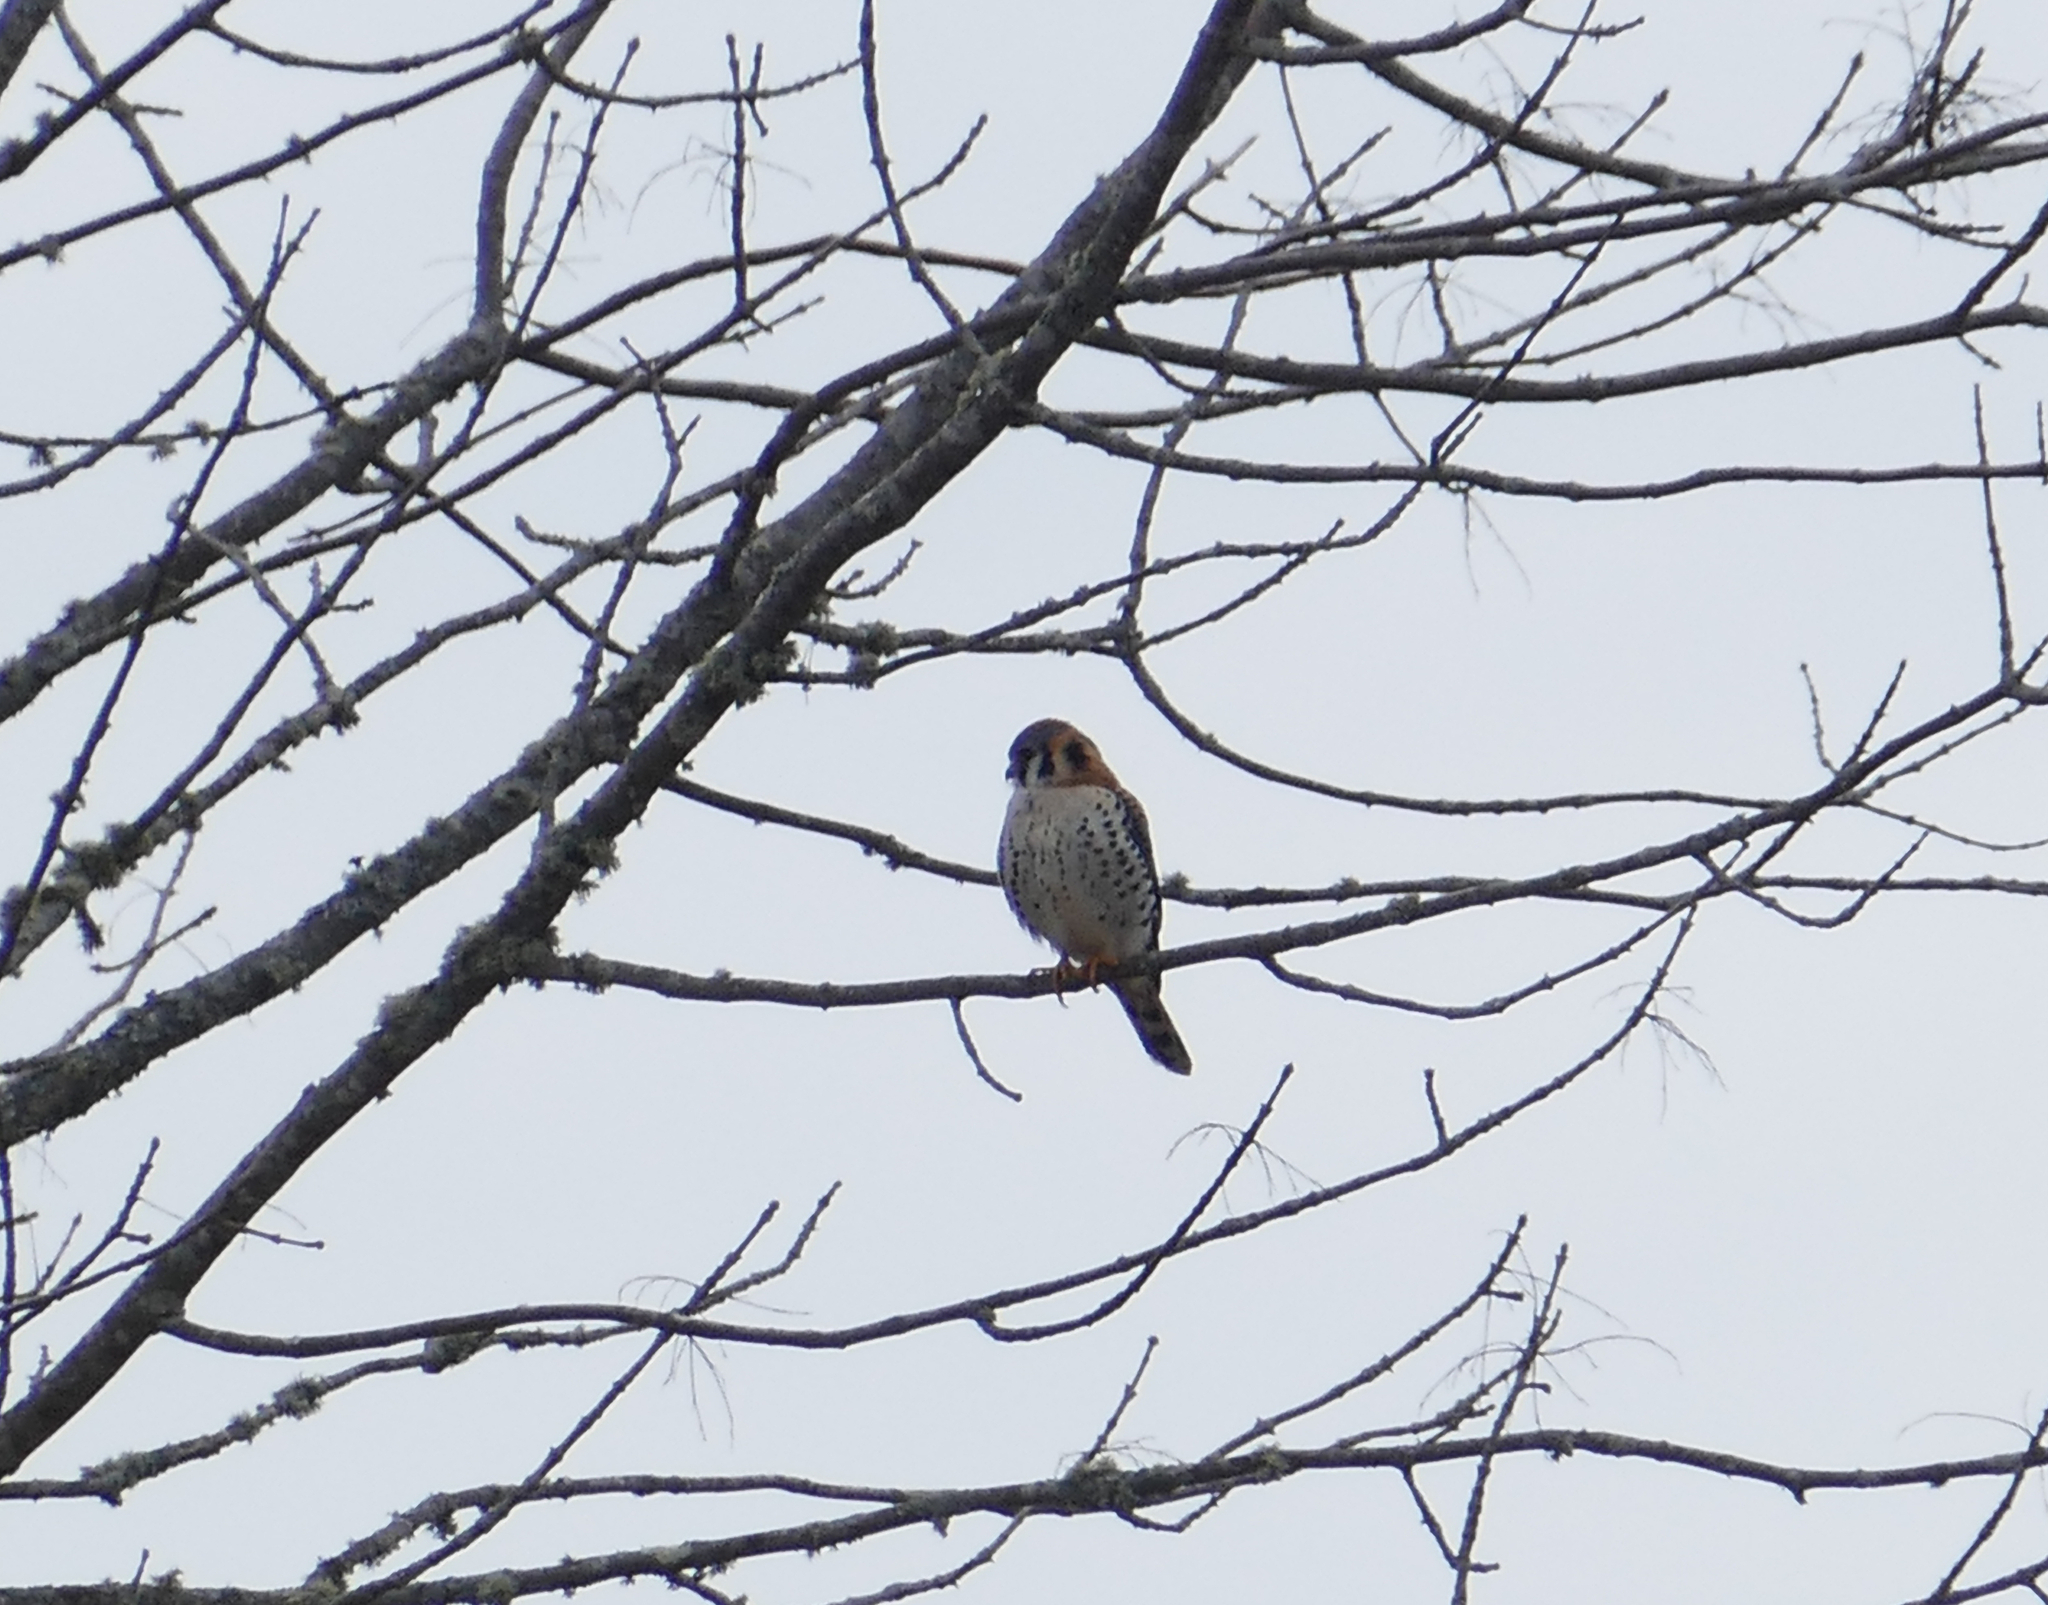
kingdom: Animalia
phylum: Chordata
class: Aves
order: Falconiformes
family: Falconidae
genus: Falco
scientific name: Falco sparverius
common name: American kestrel
